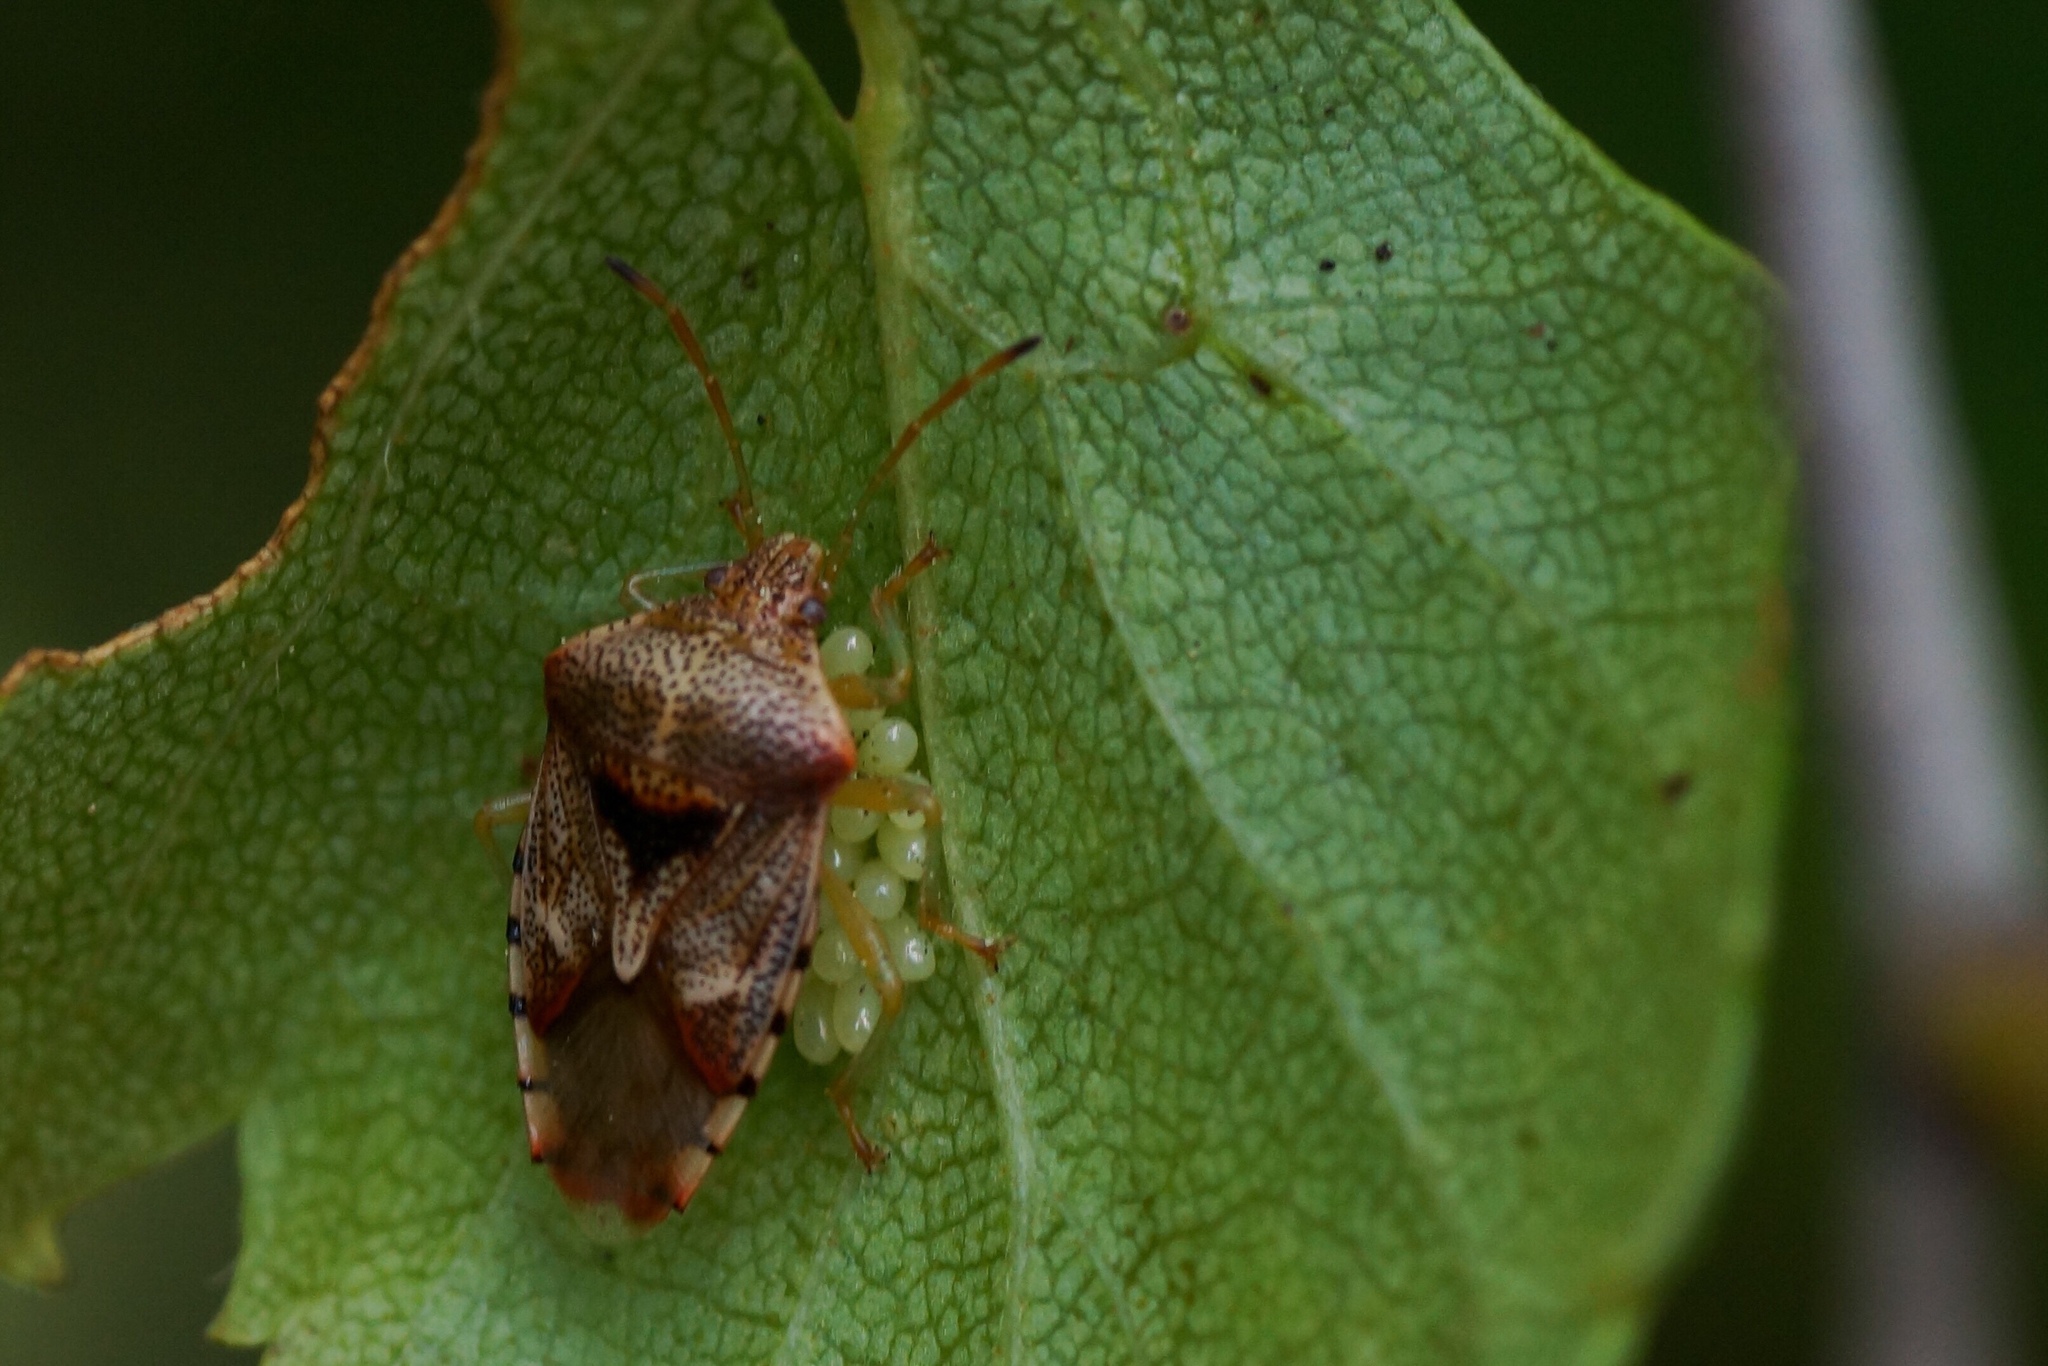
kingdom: Animalia
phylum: Arthropoda
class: Insecta
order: Hemiptera
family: Acanthosomatidae
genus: Elasmucha
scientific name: Elasmucha grisea
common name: Parent bug
